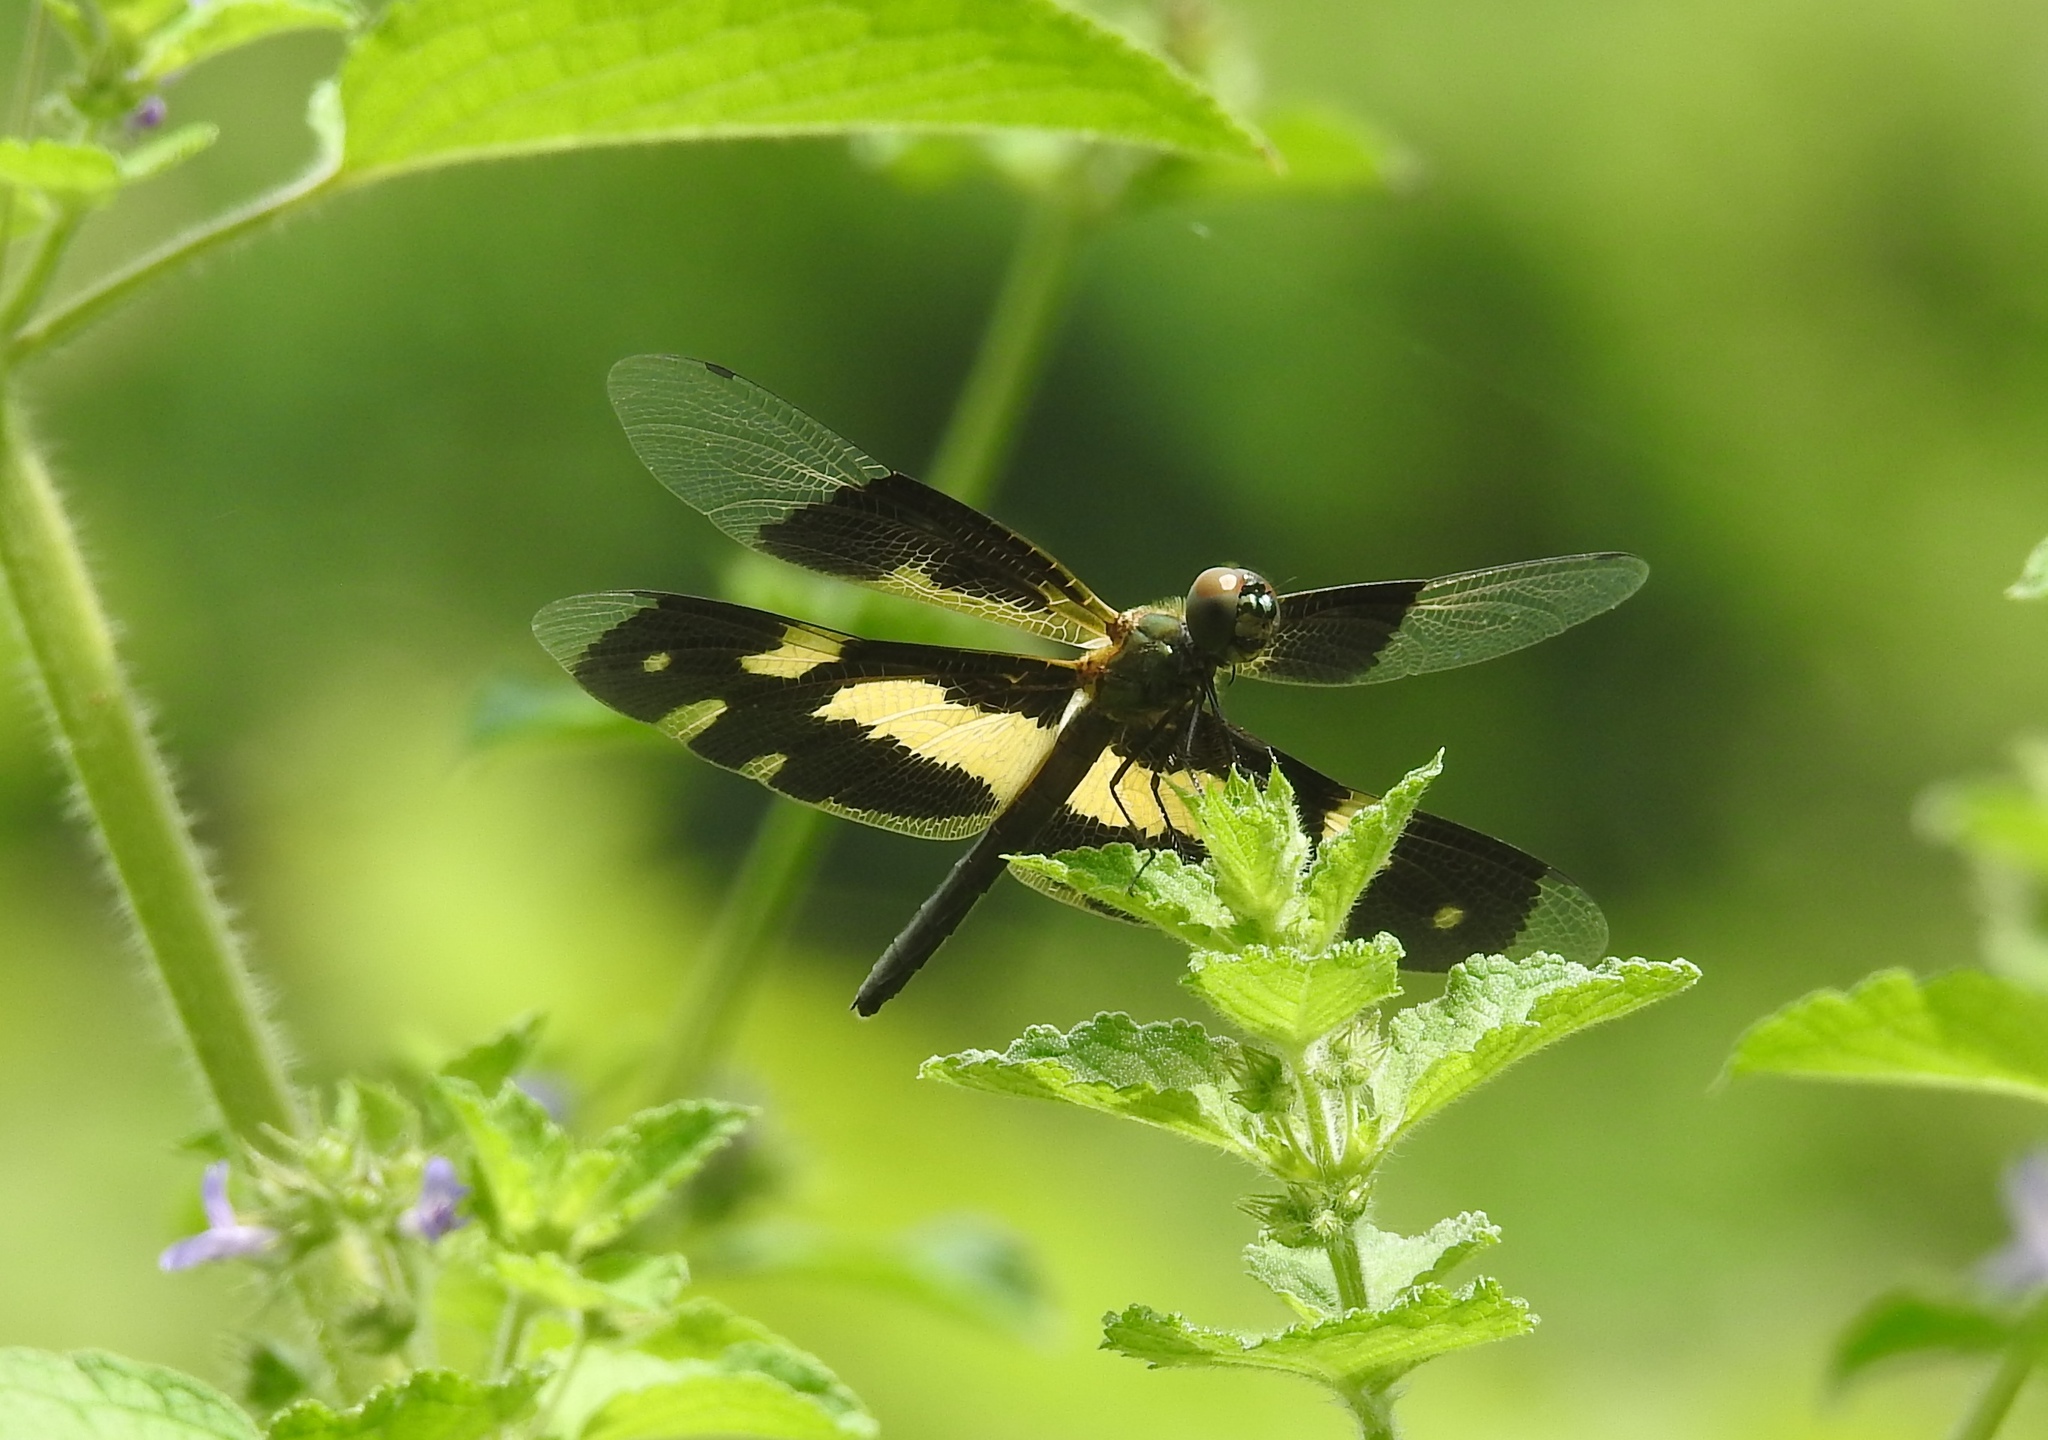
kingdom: Animalia
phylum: Arthropoda
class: Insecta
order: Odonata
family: Libellulidae
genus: Rhyothemis
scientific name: Rhyothemis variegata
